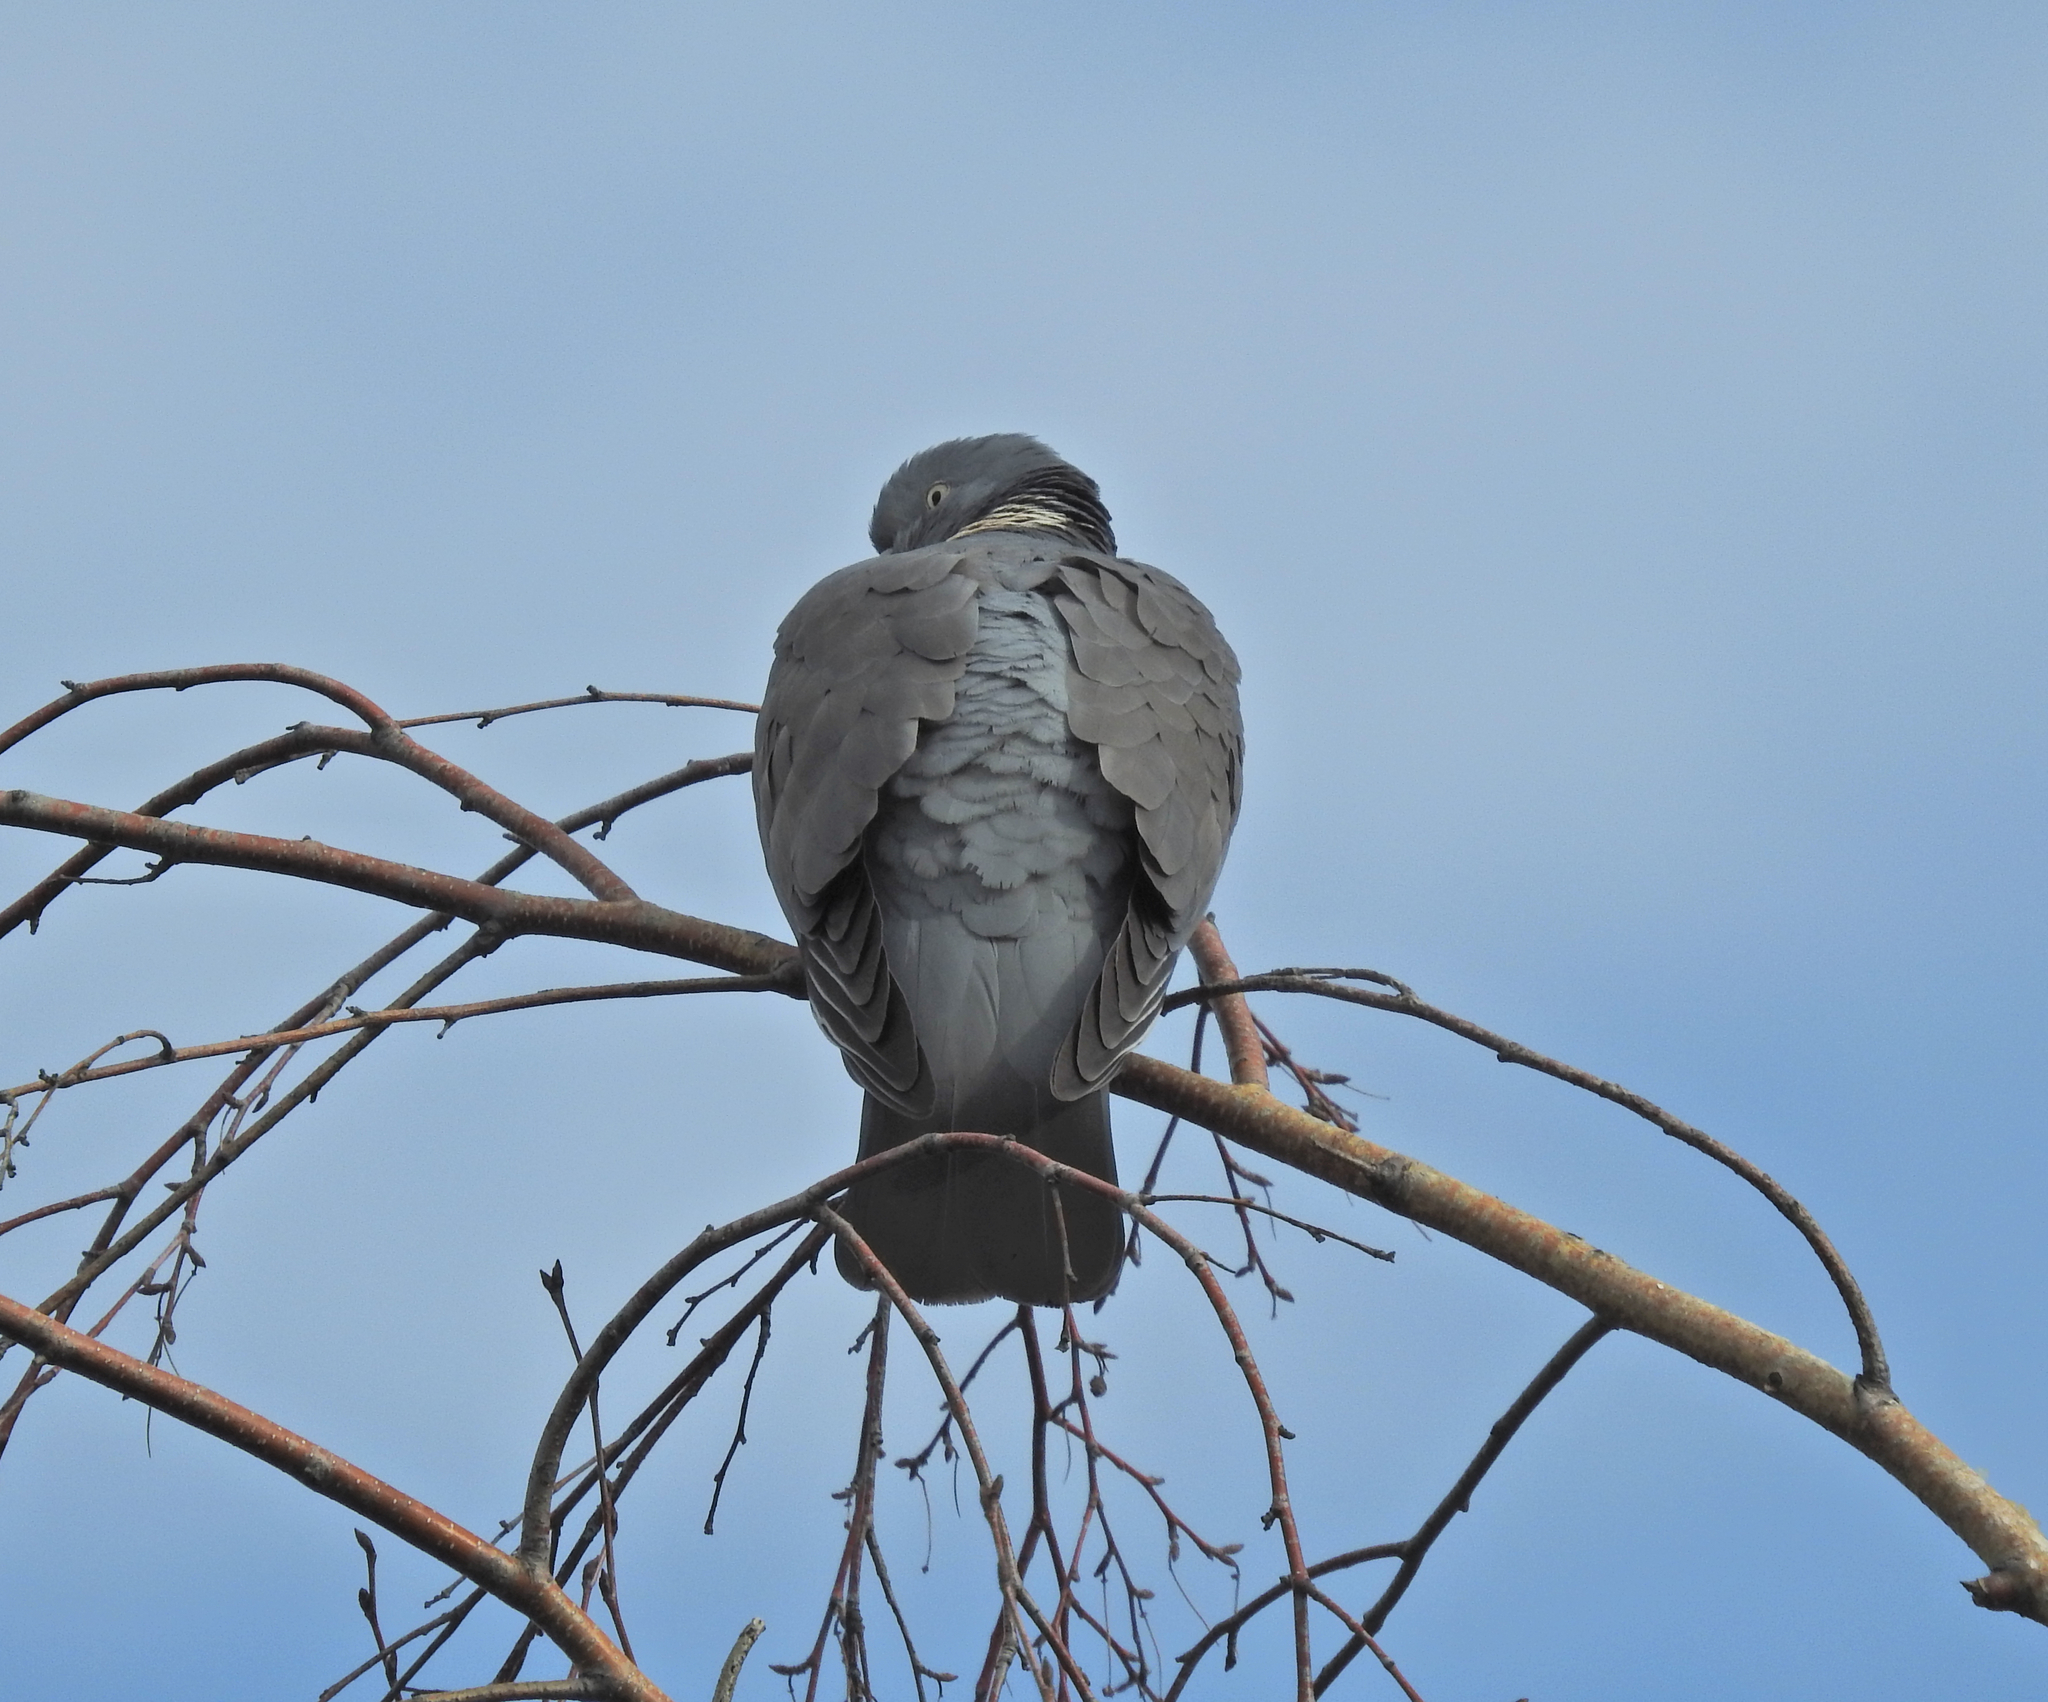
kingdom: Animalia
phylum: Chordata
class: Aves
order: Columbiformes
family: Columbidae
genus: Columba
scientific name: Columba palumbus
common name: Common wood pigeon
